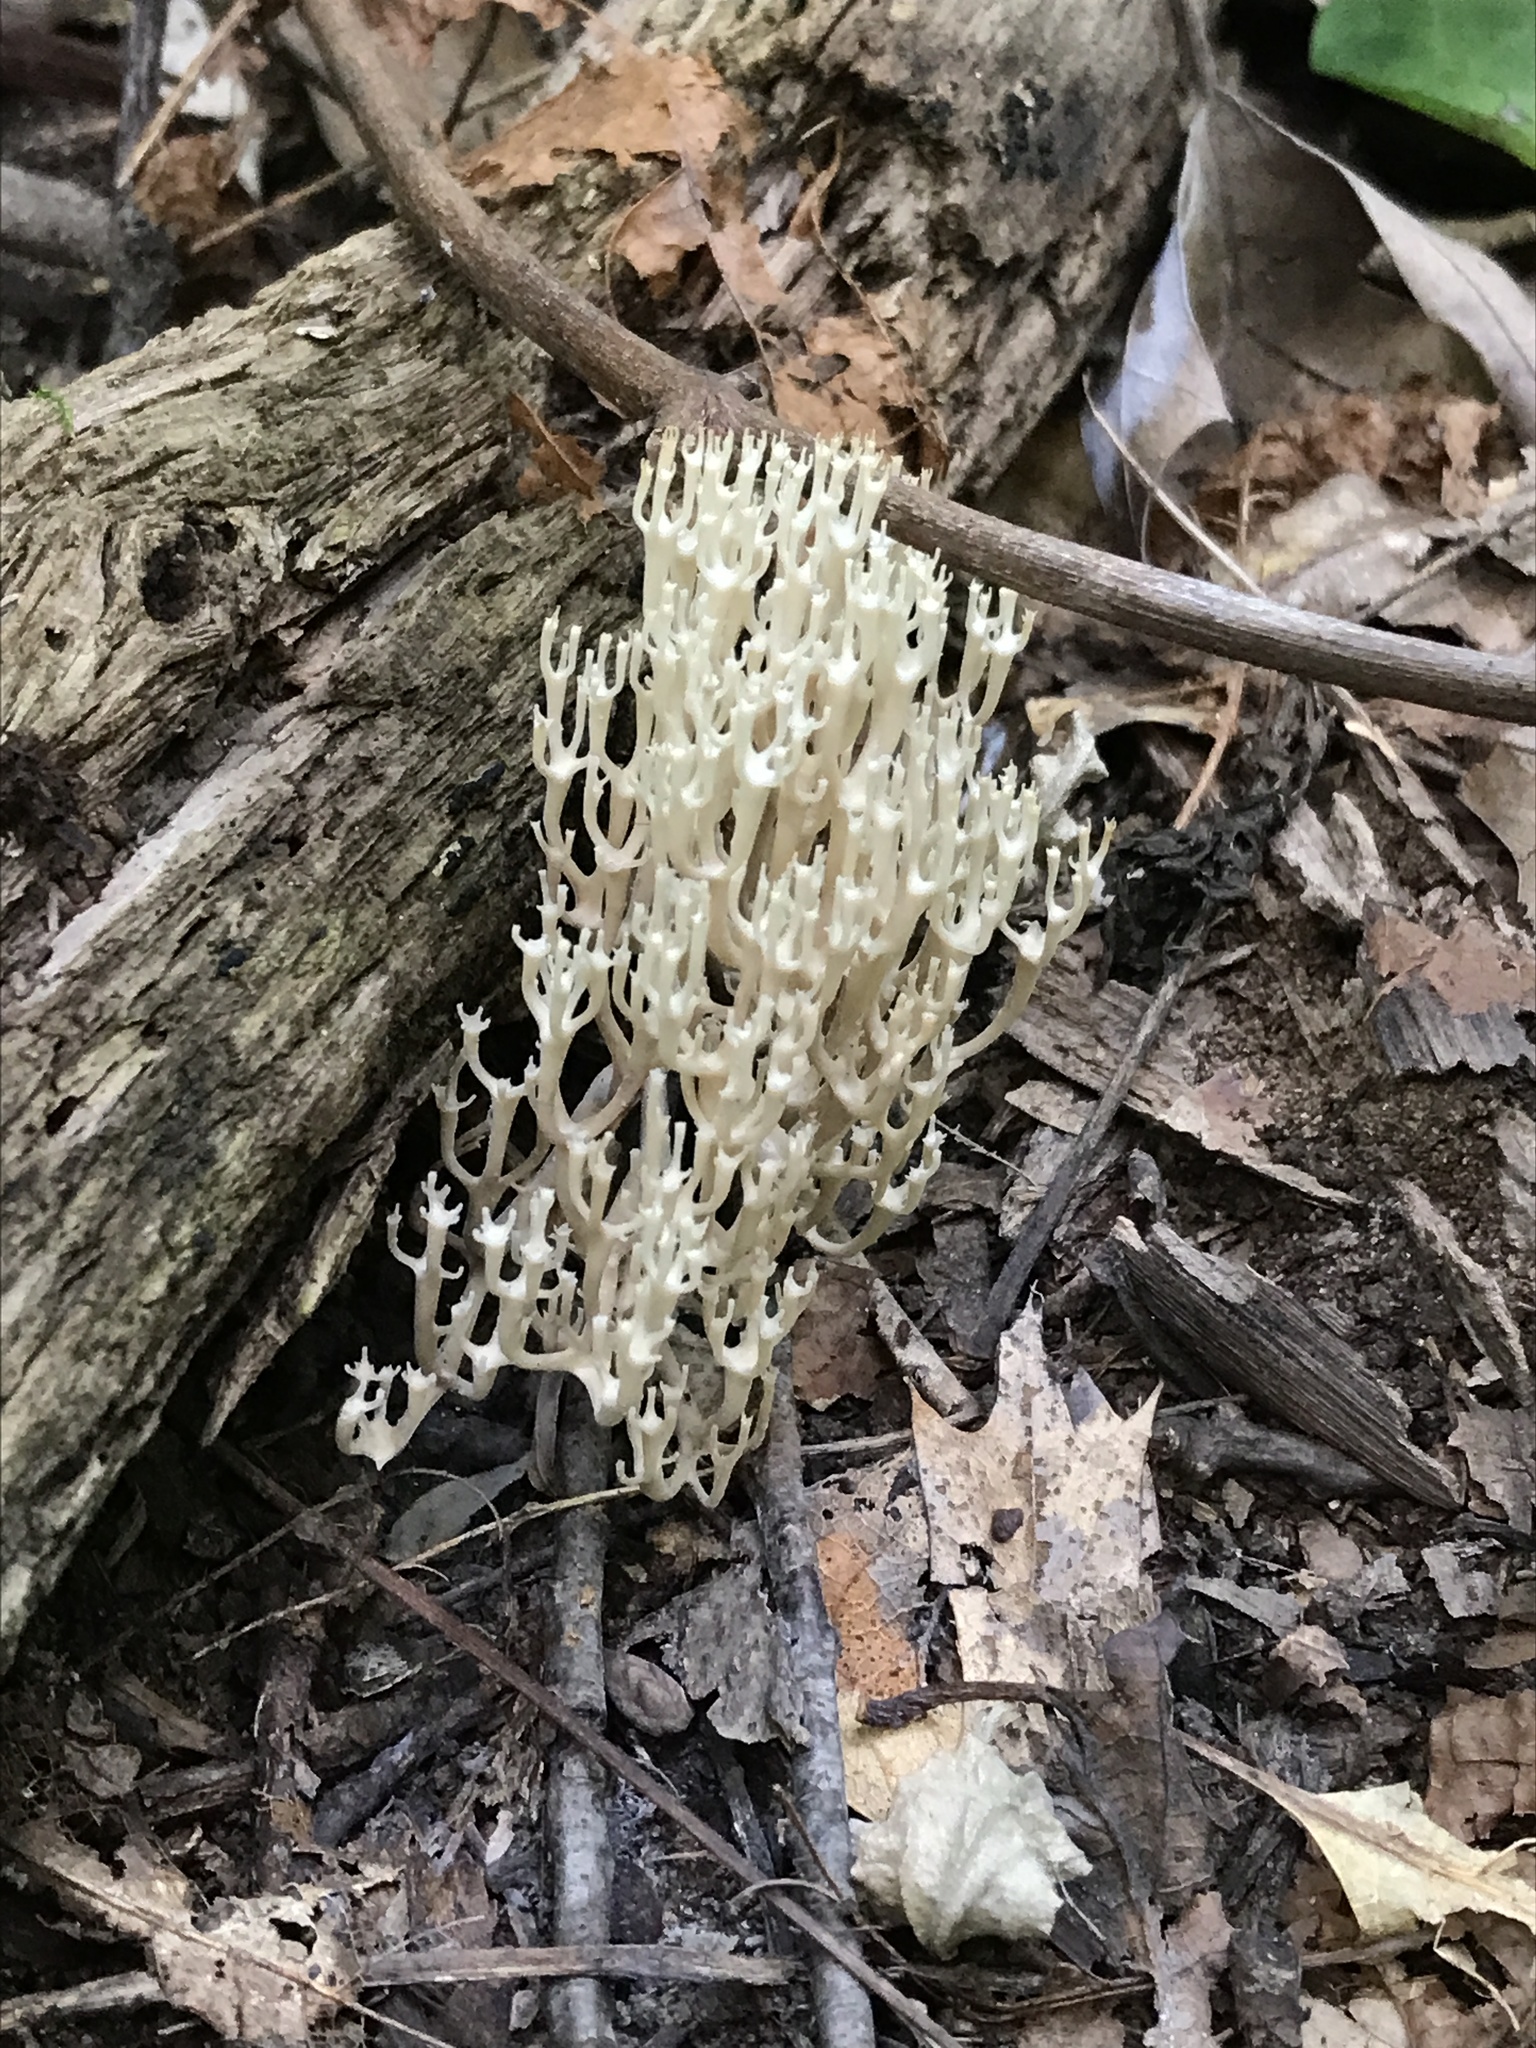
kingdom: Fungi
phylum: Basidiomycota
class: Agaricomycetes
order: Russulales
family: Auriscalpiaceae
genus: Artomyces
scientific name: Artomyces pyxidatus
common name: Crown-tipped coral fungus
